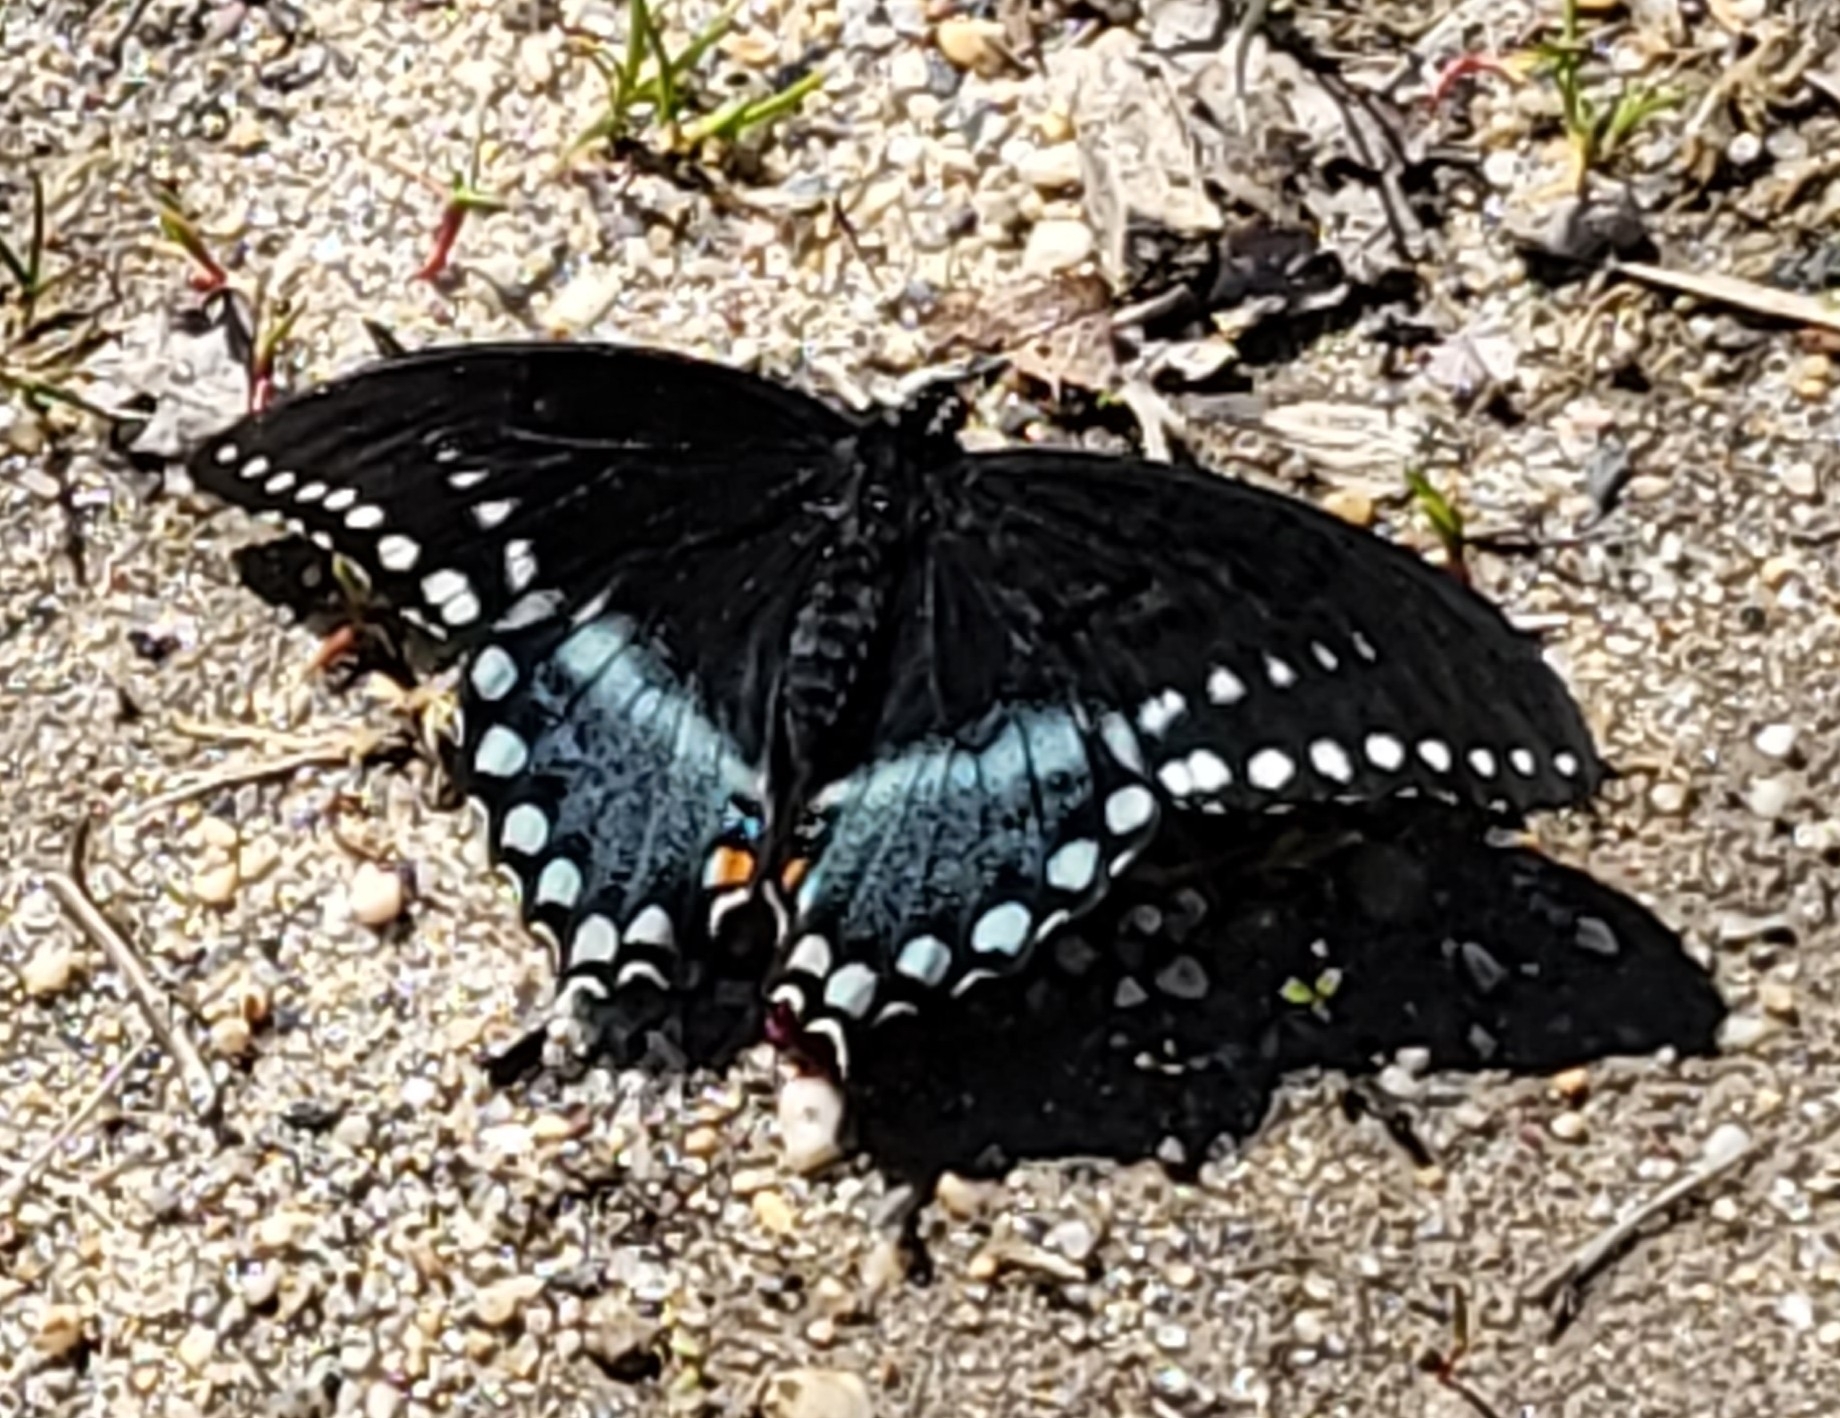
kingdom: Animalia
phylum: Arthropoda
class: Insecta
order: Lepidoptera
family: Papilionidae
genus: Papilio
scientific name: Papilio troilus
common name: Spicebush swallowtail
